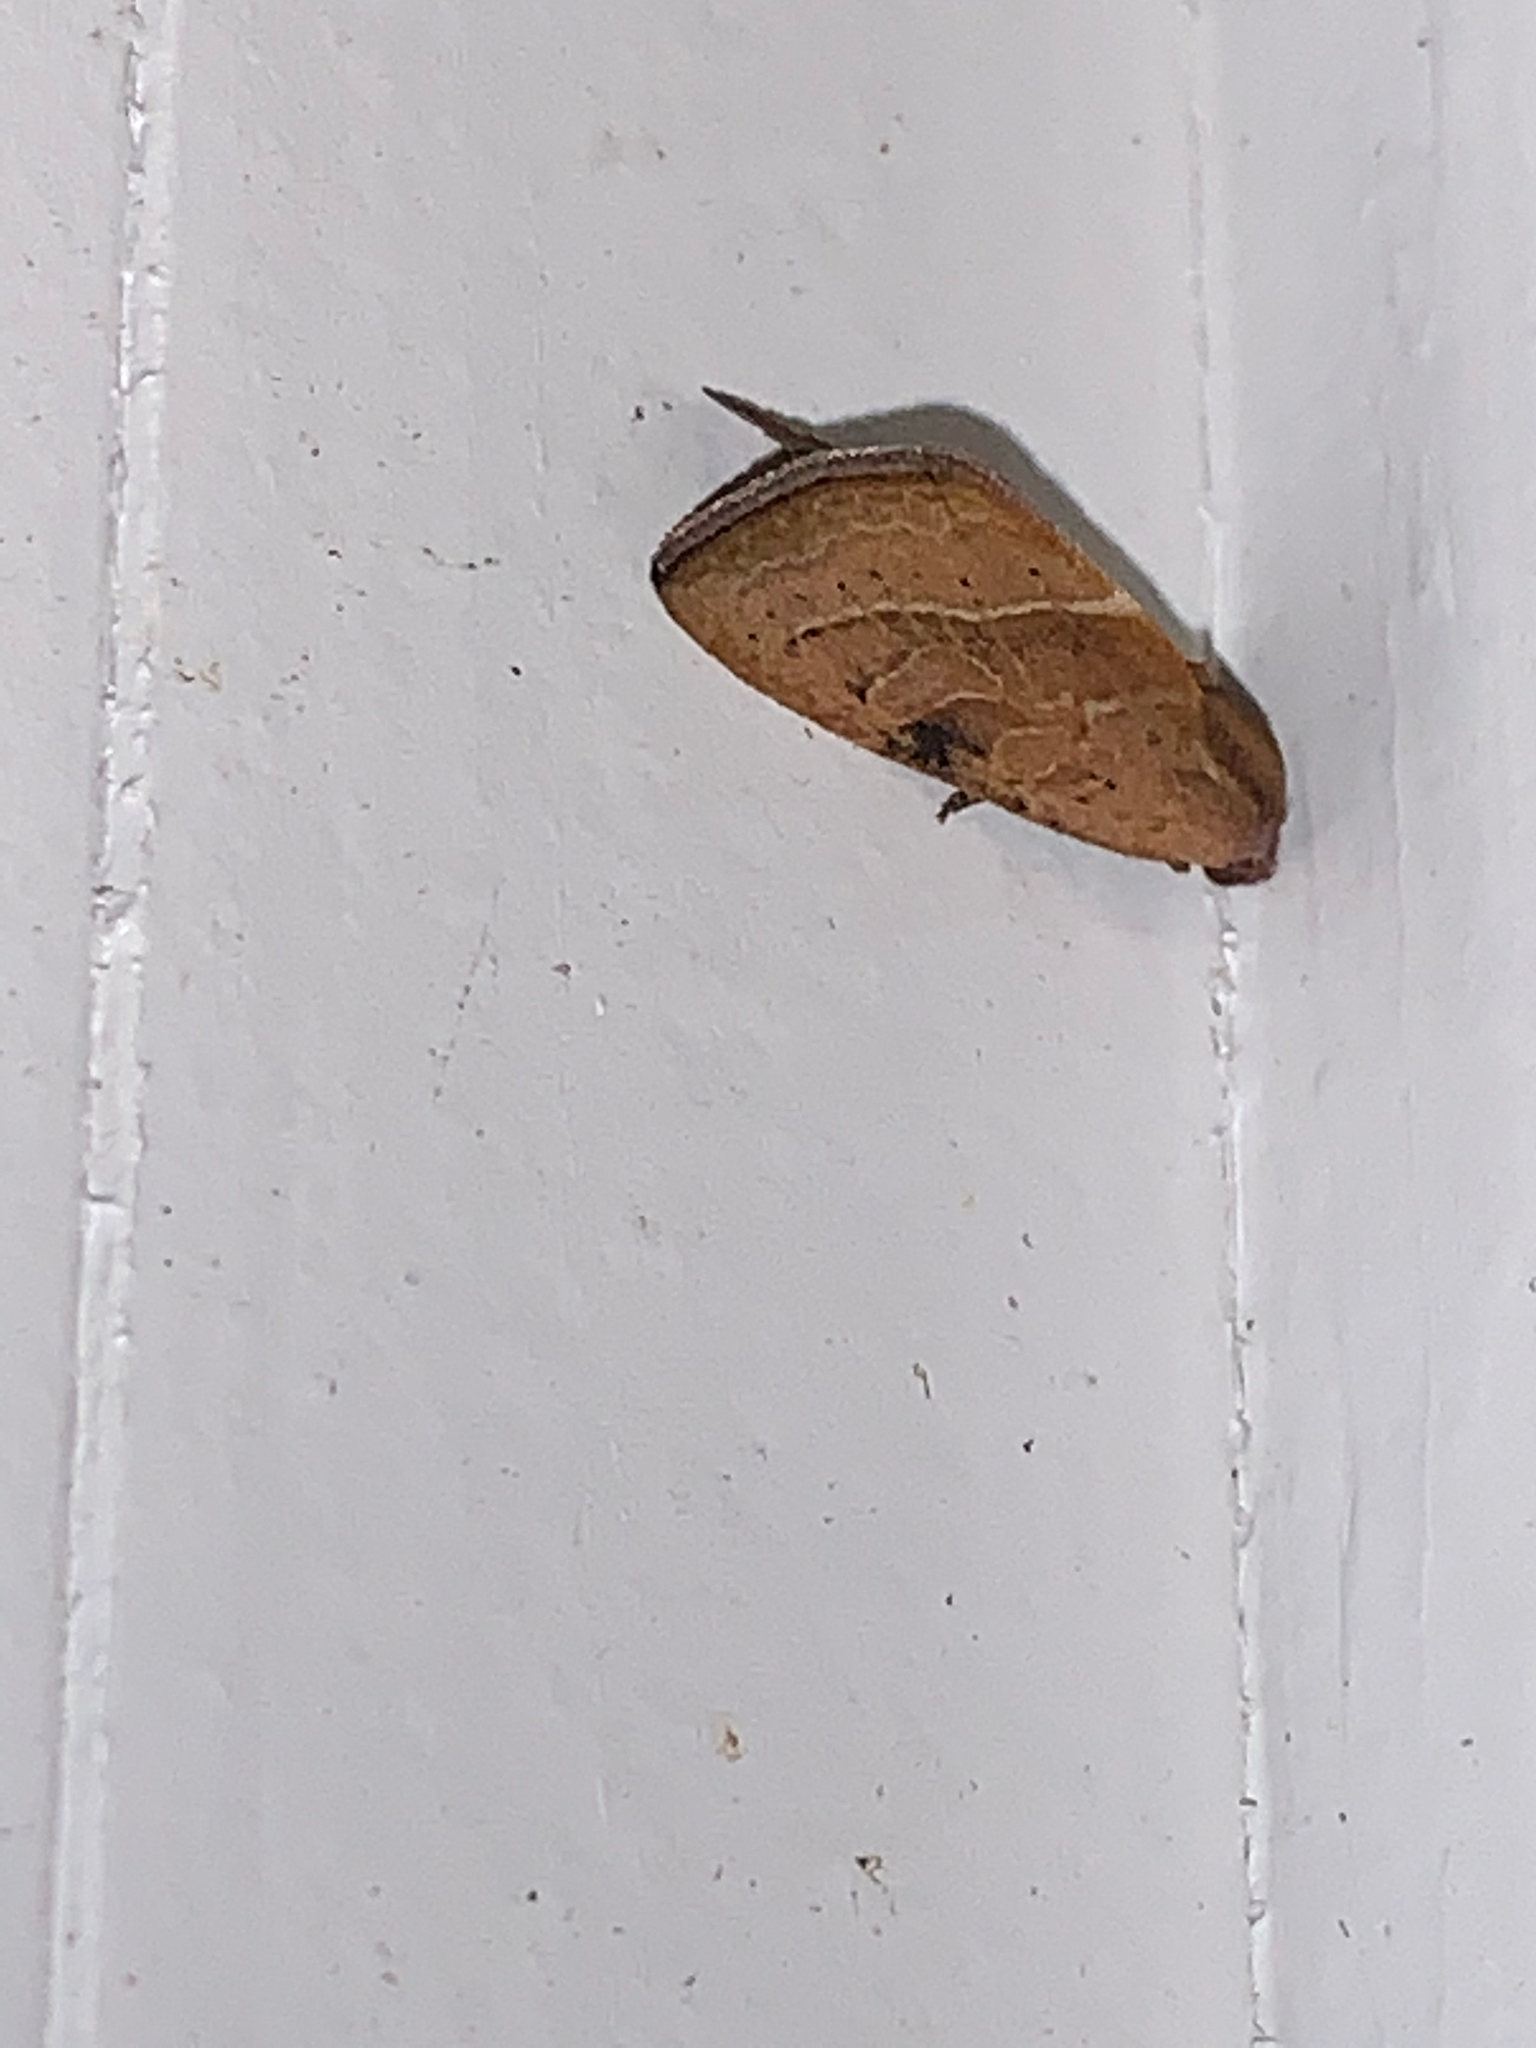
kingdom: Animalia
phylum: Arthropoda
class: Insecta
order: Lepidoptera
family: Noctuidae
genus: Galgula
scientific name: Galgula partita
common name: Wedgeling
